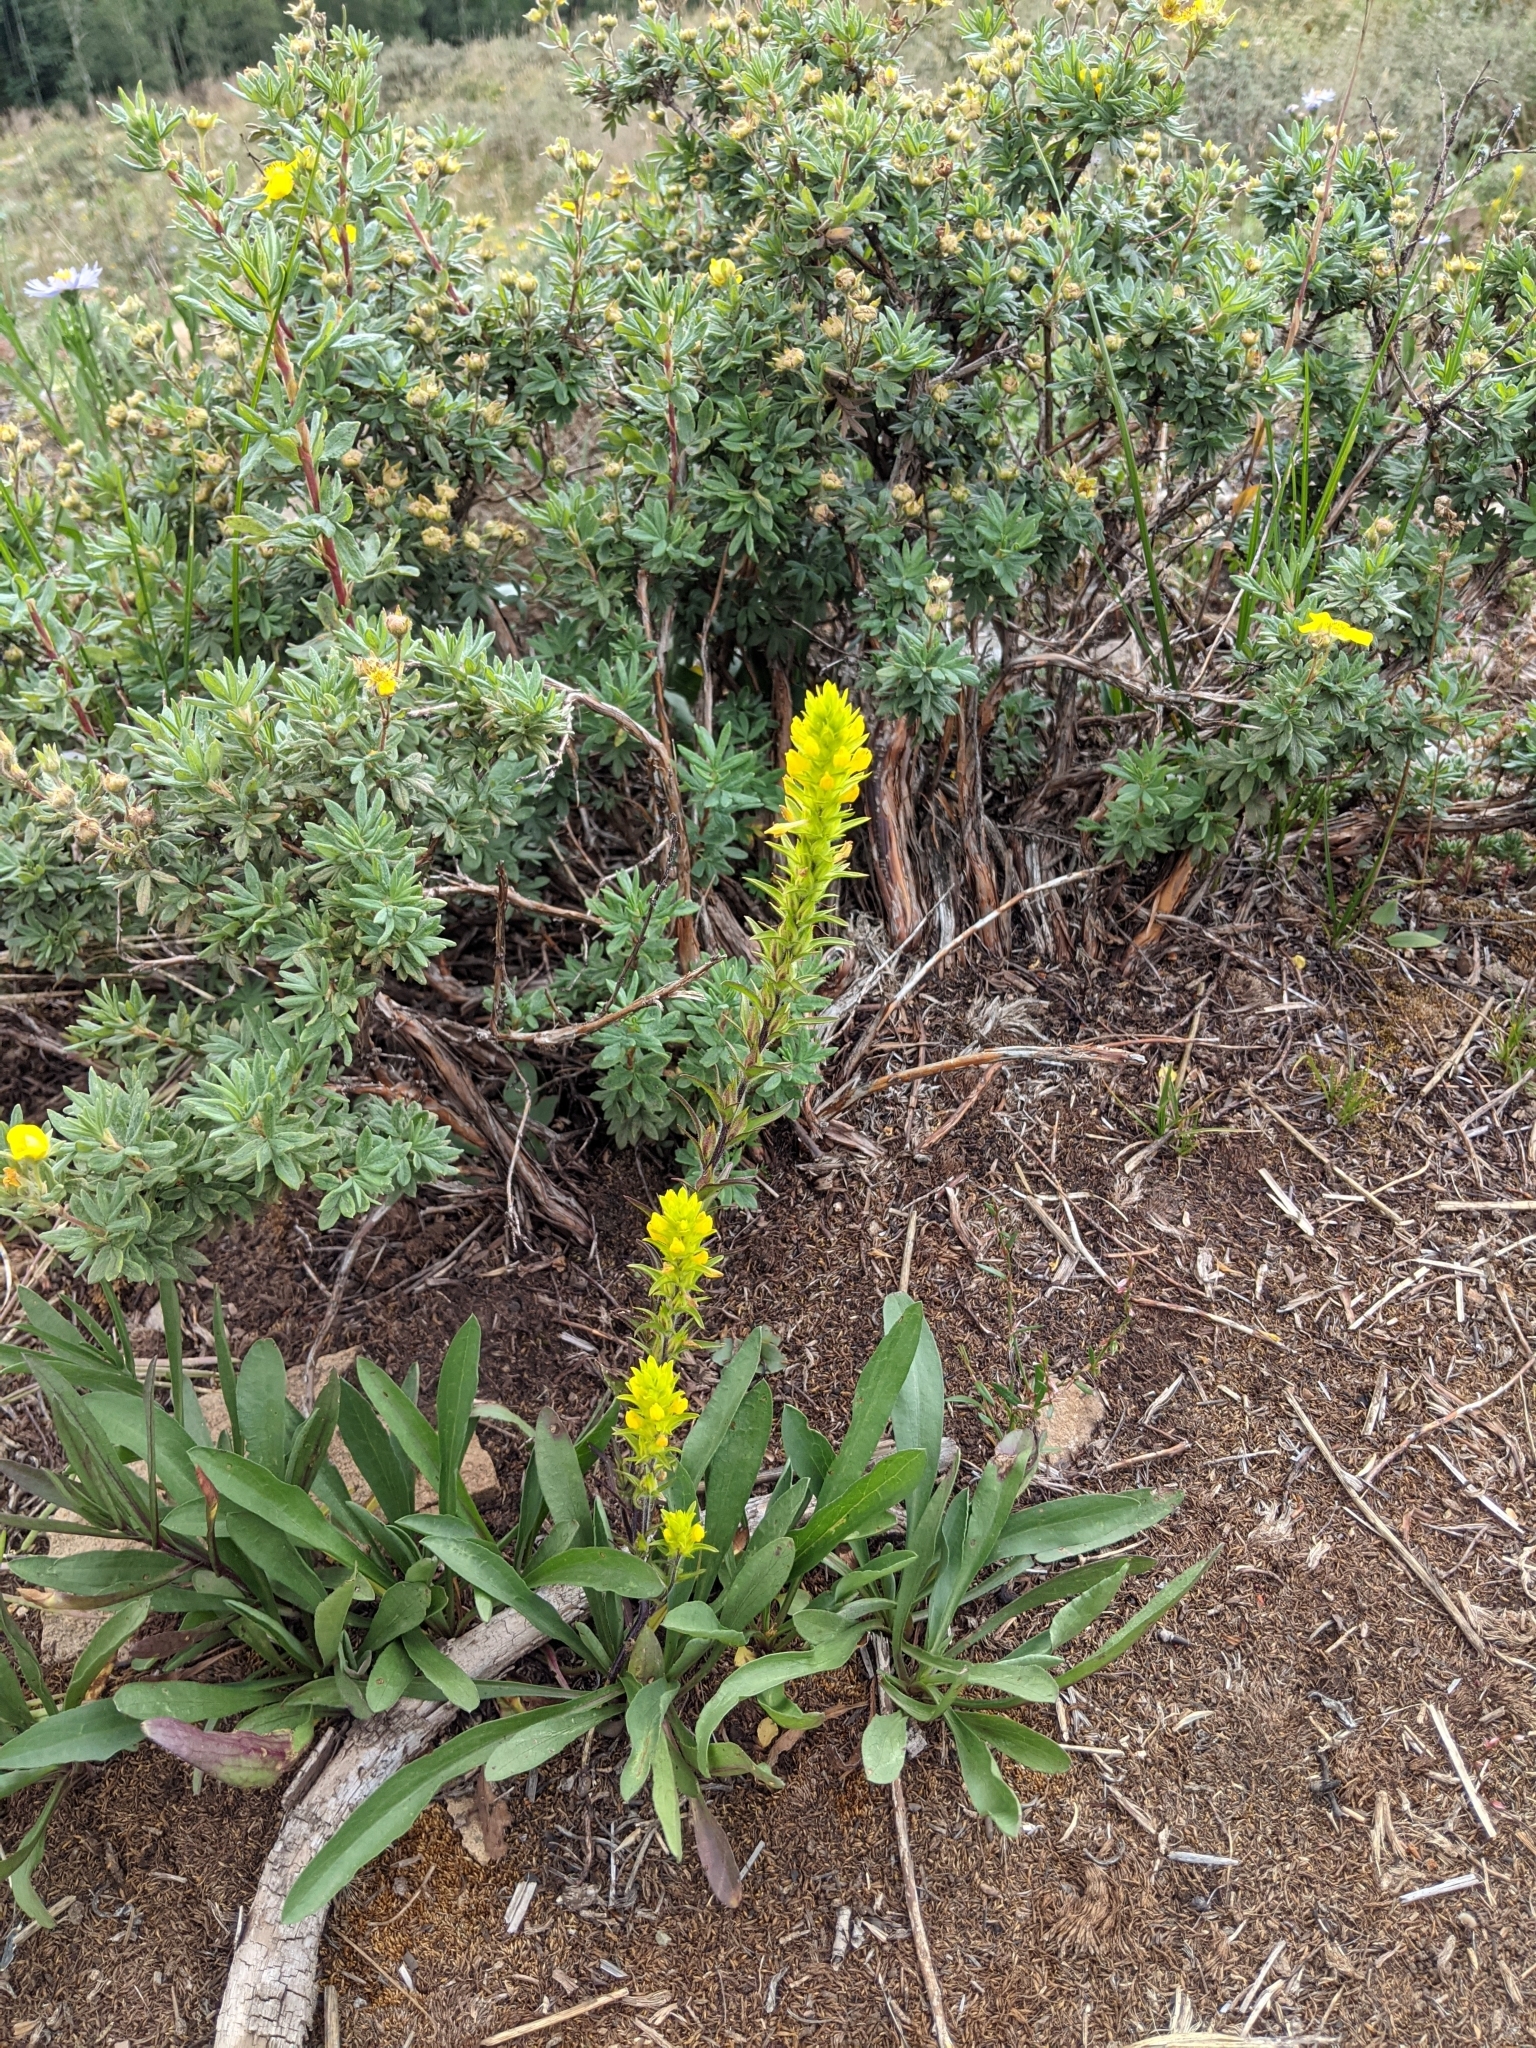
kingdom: Plantae
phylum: Tracheophyta
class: Magnoliopsida
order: Lamiales
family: Orobanchaceae
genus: Orthocarpus
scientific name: Orthocarpus luteus
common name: Golden-tongue owl's-clover
